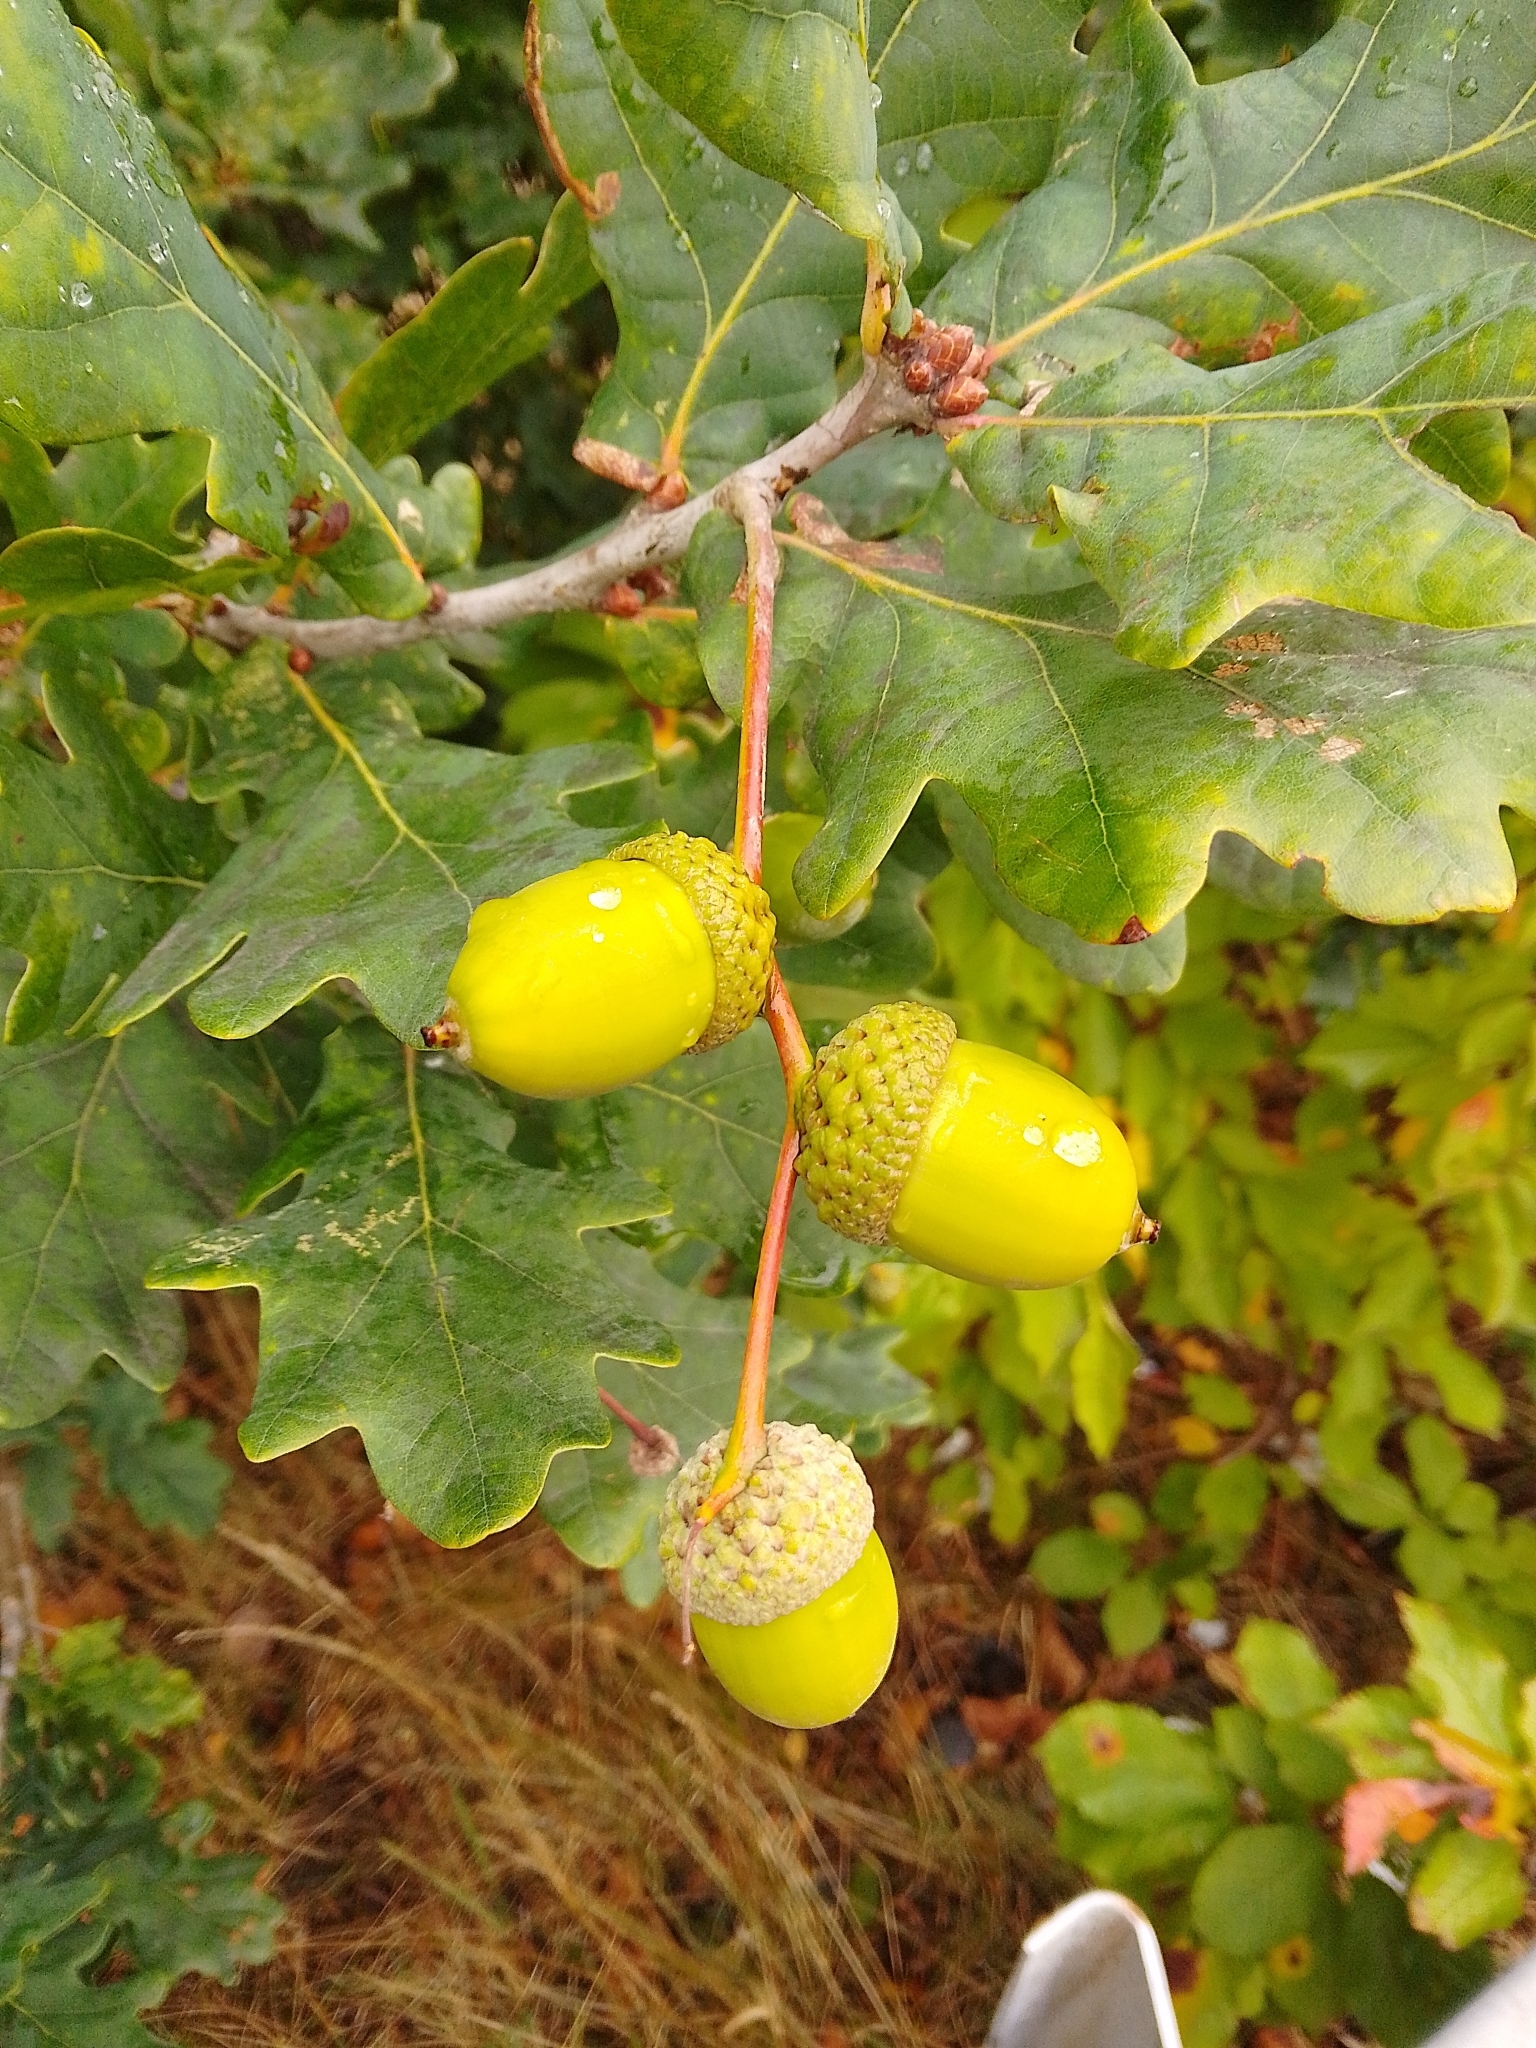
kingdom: Plantae
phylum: Tracheophyta
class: Magnoliopsida
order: Fagales
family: Fagaceae
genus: Quercus
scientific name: Quercus robur
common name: Pedunculate oak
